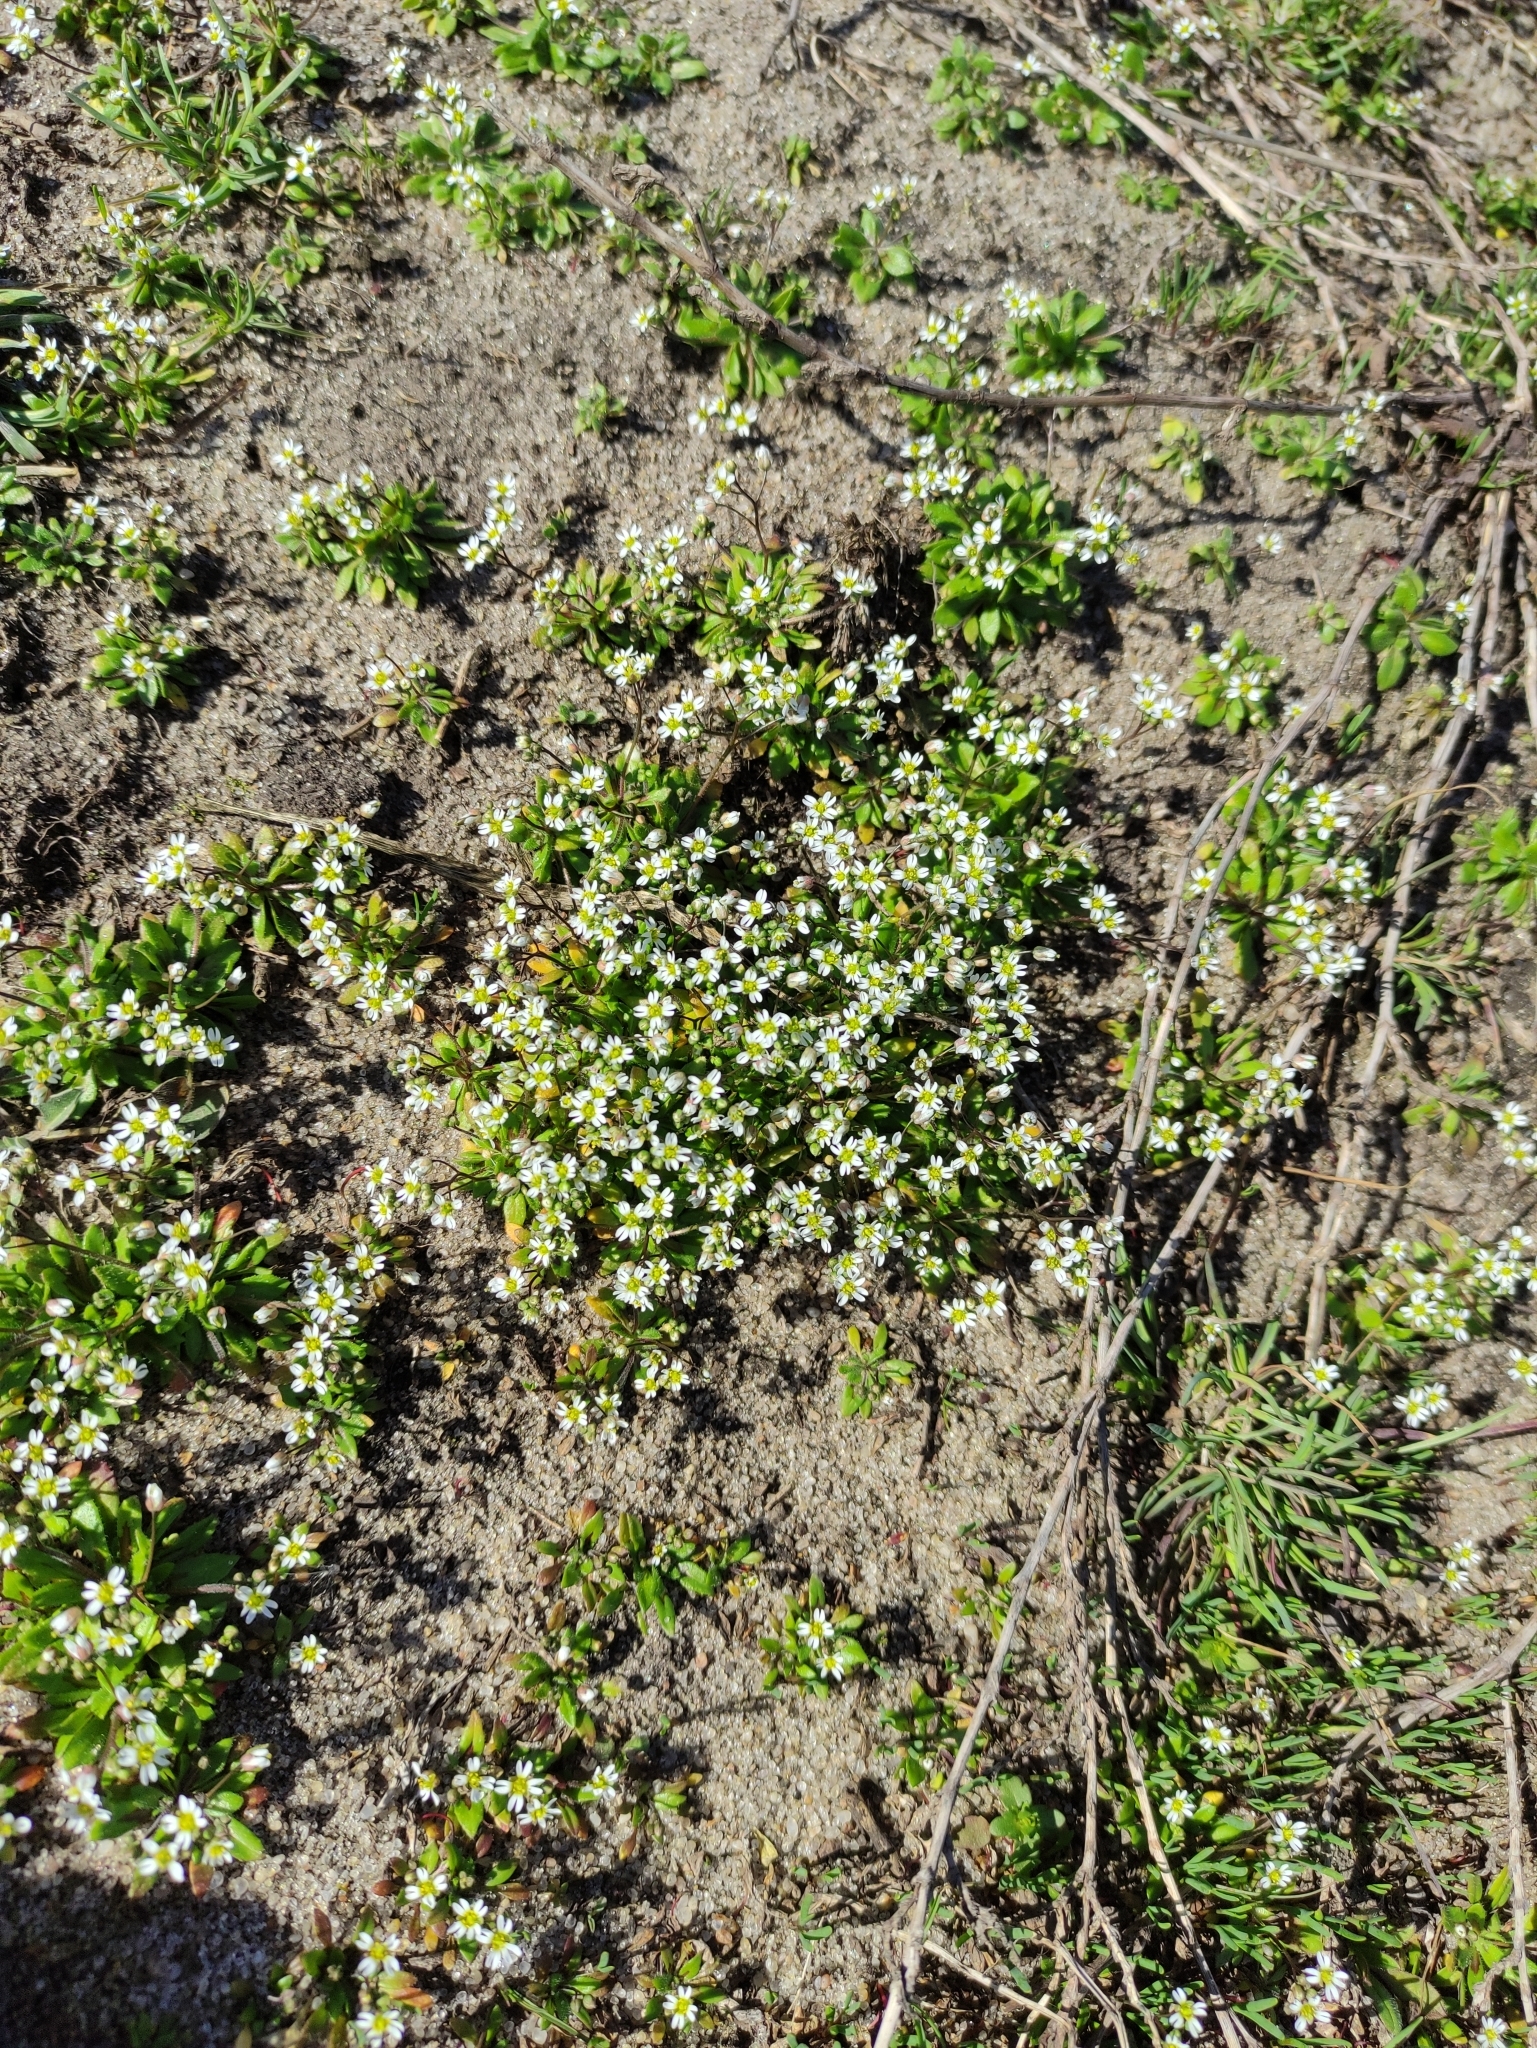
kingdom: Plantae
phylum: Tracheophyta
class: Magnoliopsida
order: Brassicales
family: Brassicaceae
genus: Draba
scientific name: Draba verna
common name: Spring draba
